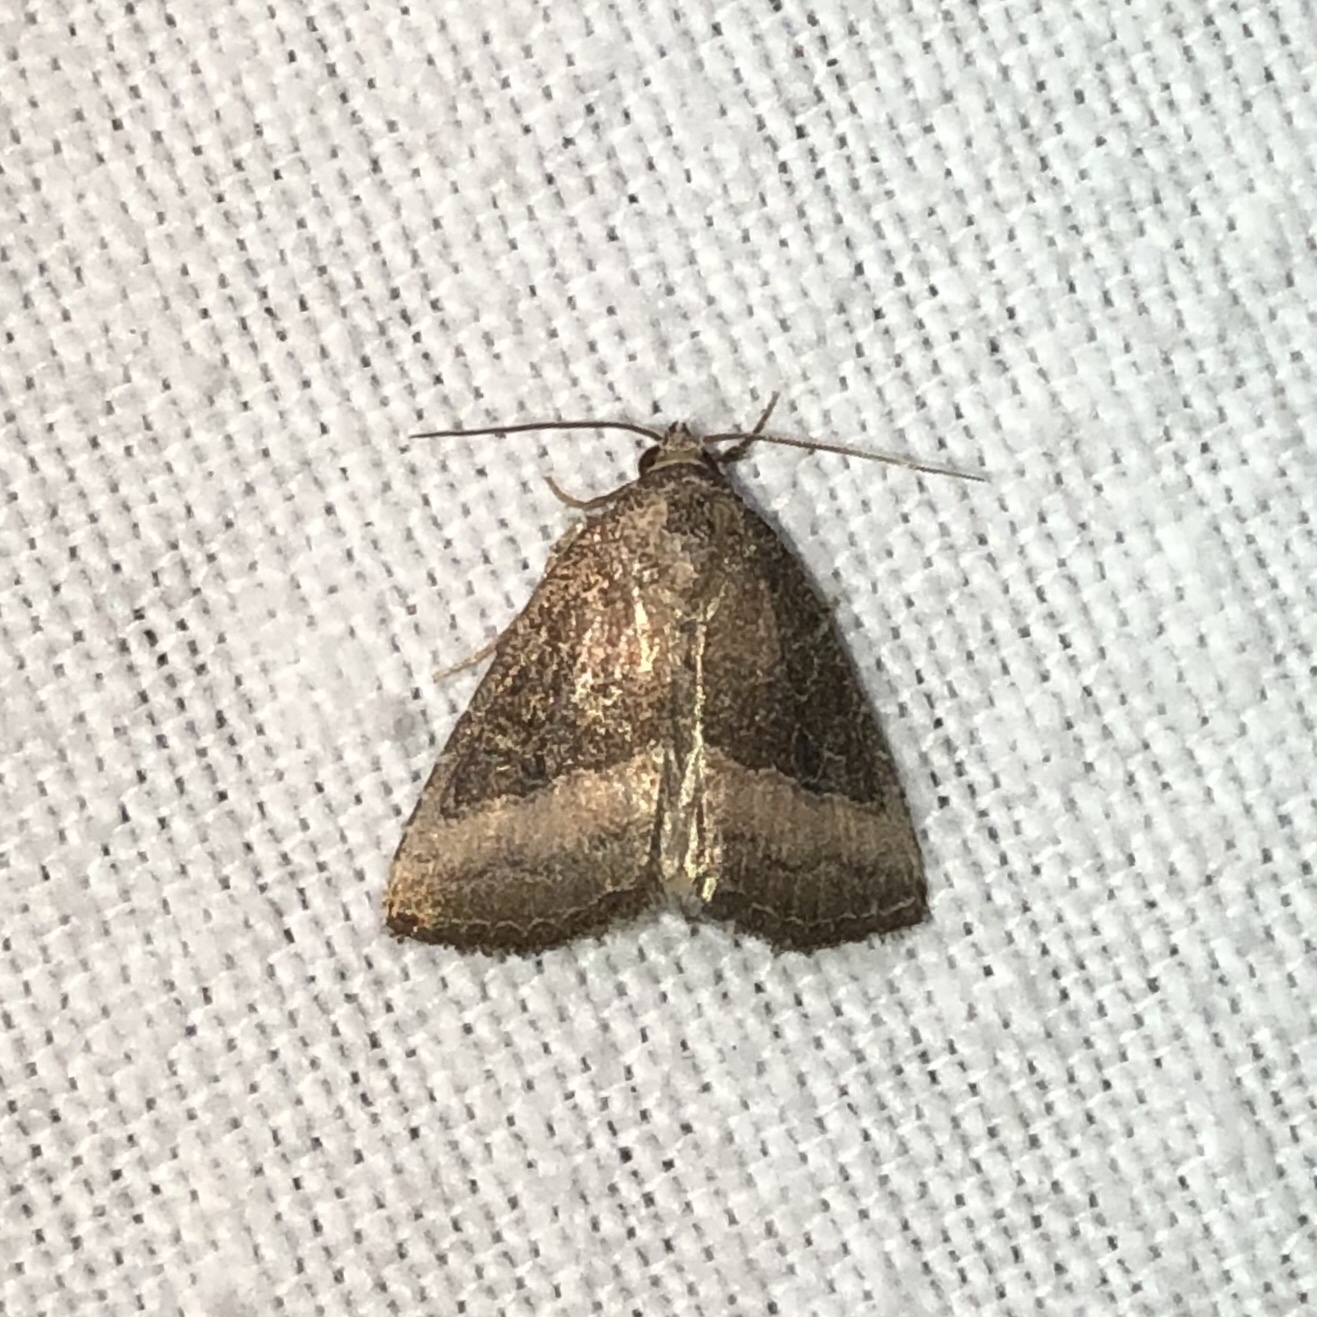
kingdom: Animalia
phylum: Arthropoda
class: Insecta
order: Lepidoptera
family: Noctuidae
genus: Ogdoconta
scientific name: Ogdoconta cinereola
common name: Common pinkband
